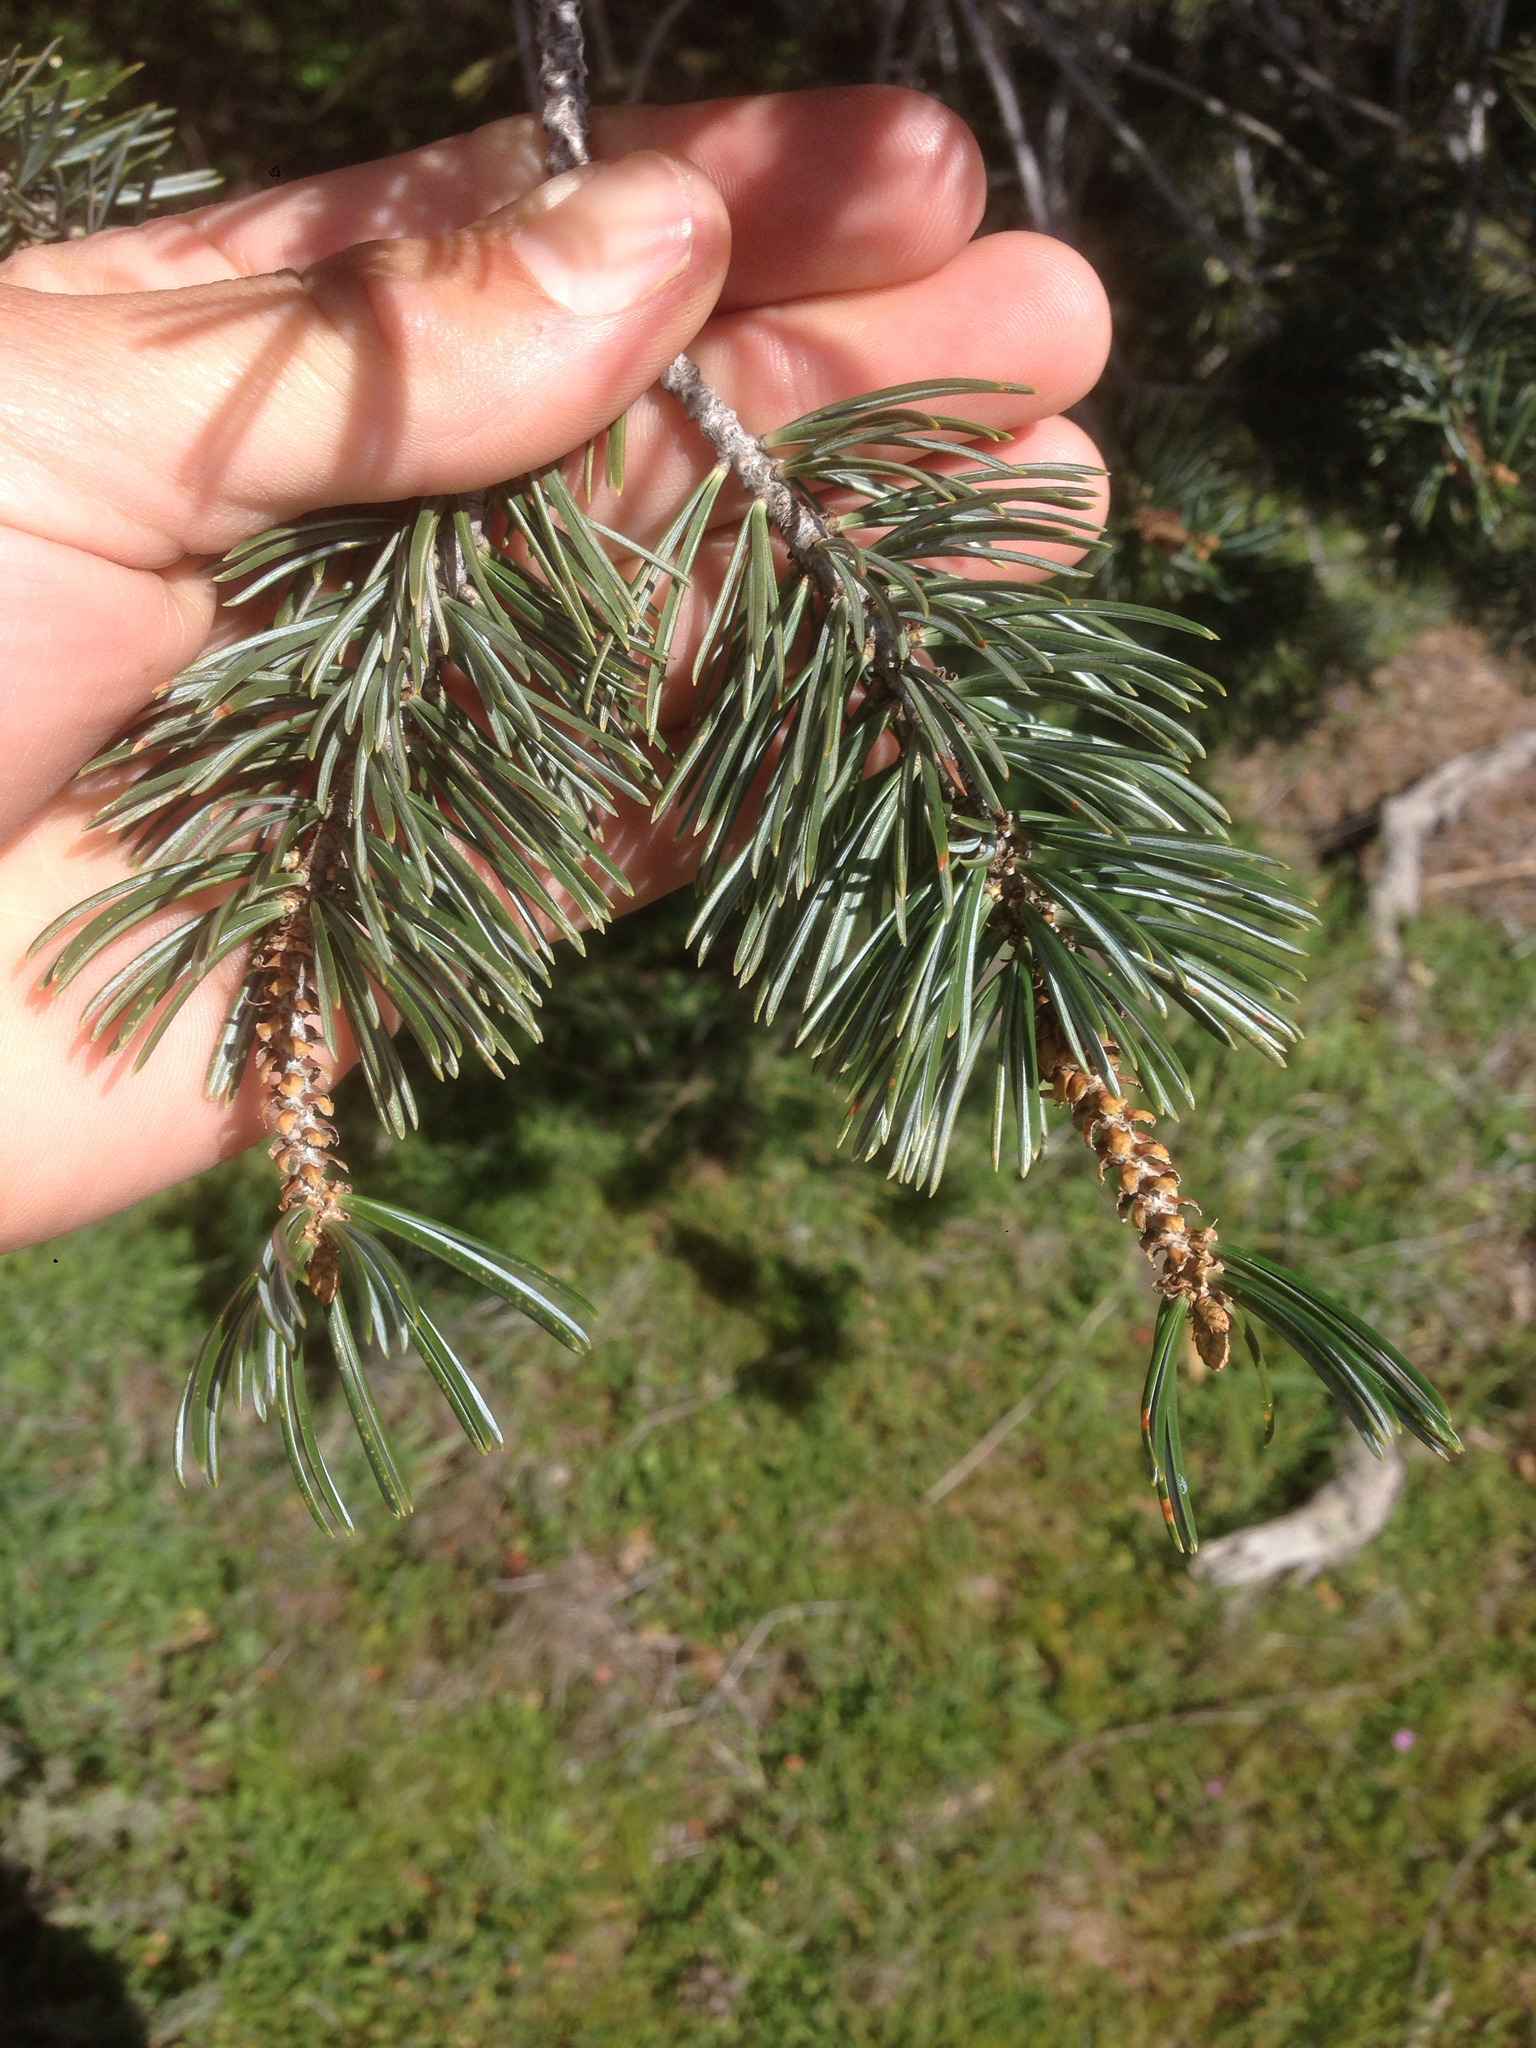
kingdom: Plantae
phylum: Tracheophyta
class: Pinopsida
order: Pinales
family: Pinaceae
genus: Pinus
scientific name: Pinus quadrifolia
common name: Parry pinyon
